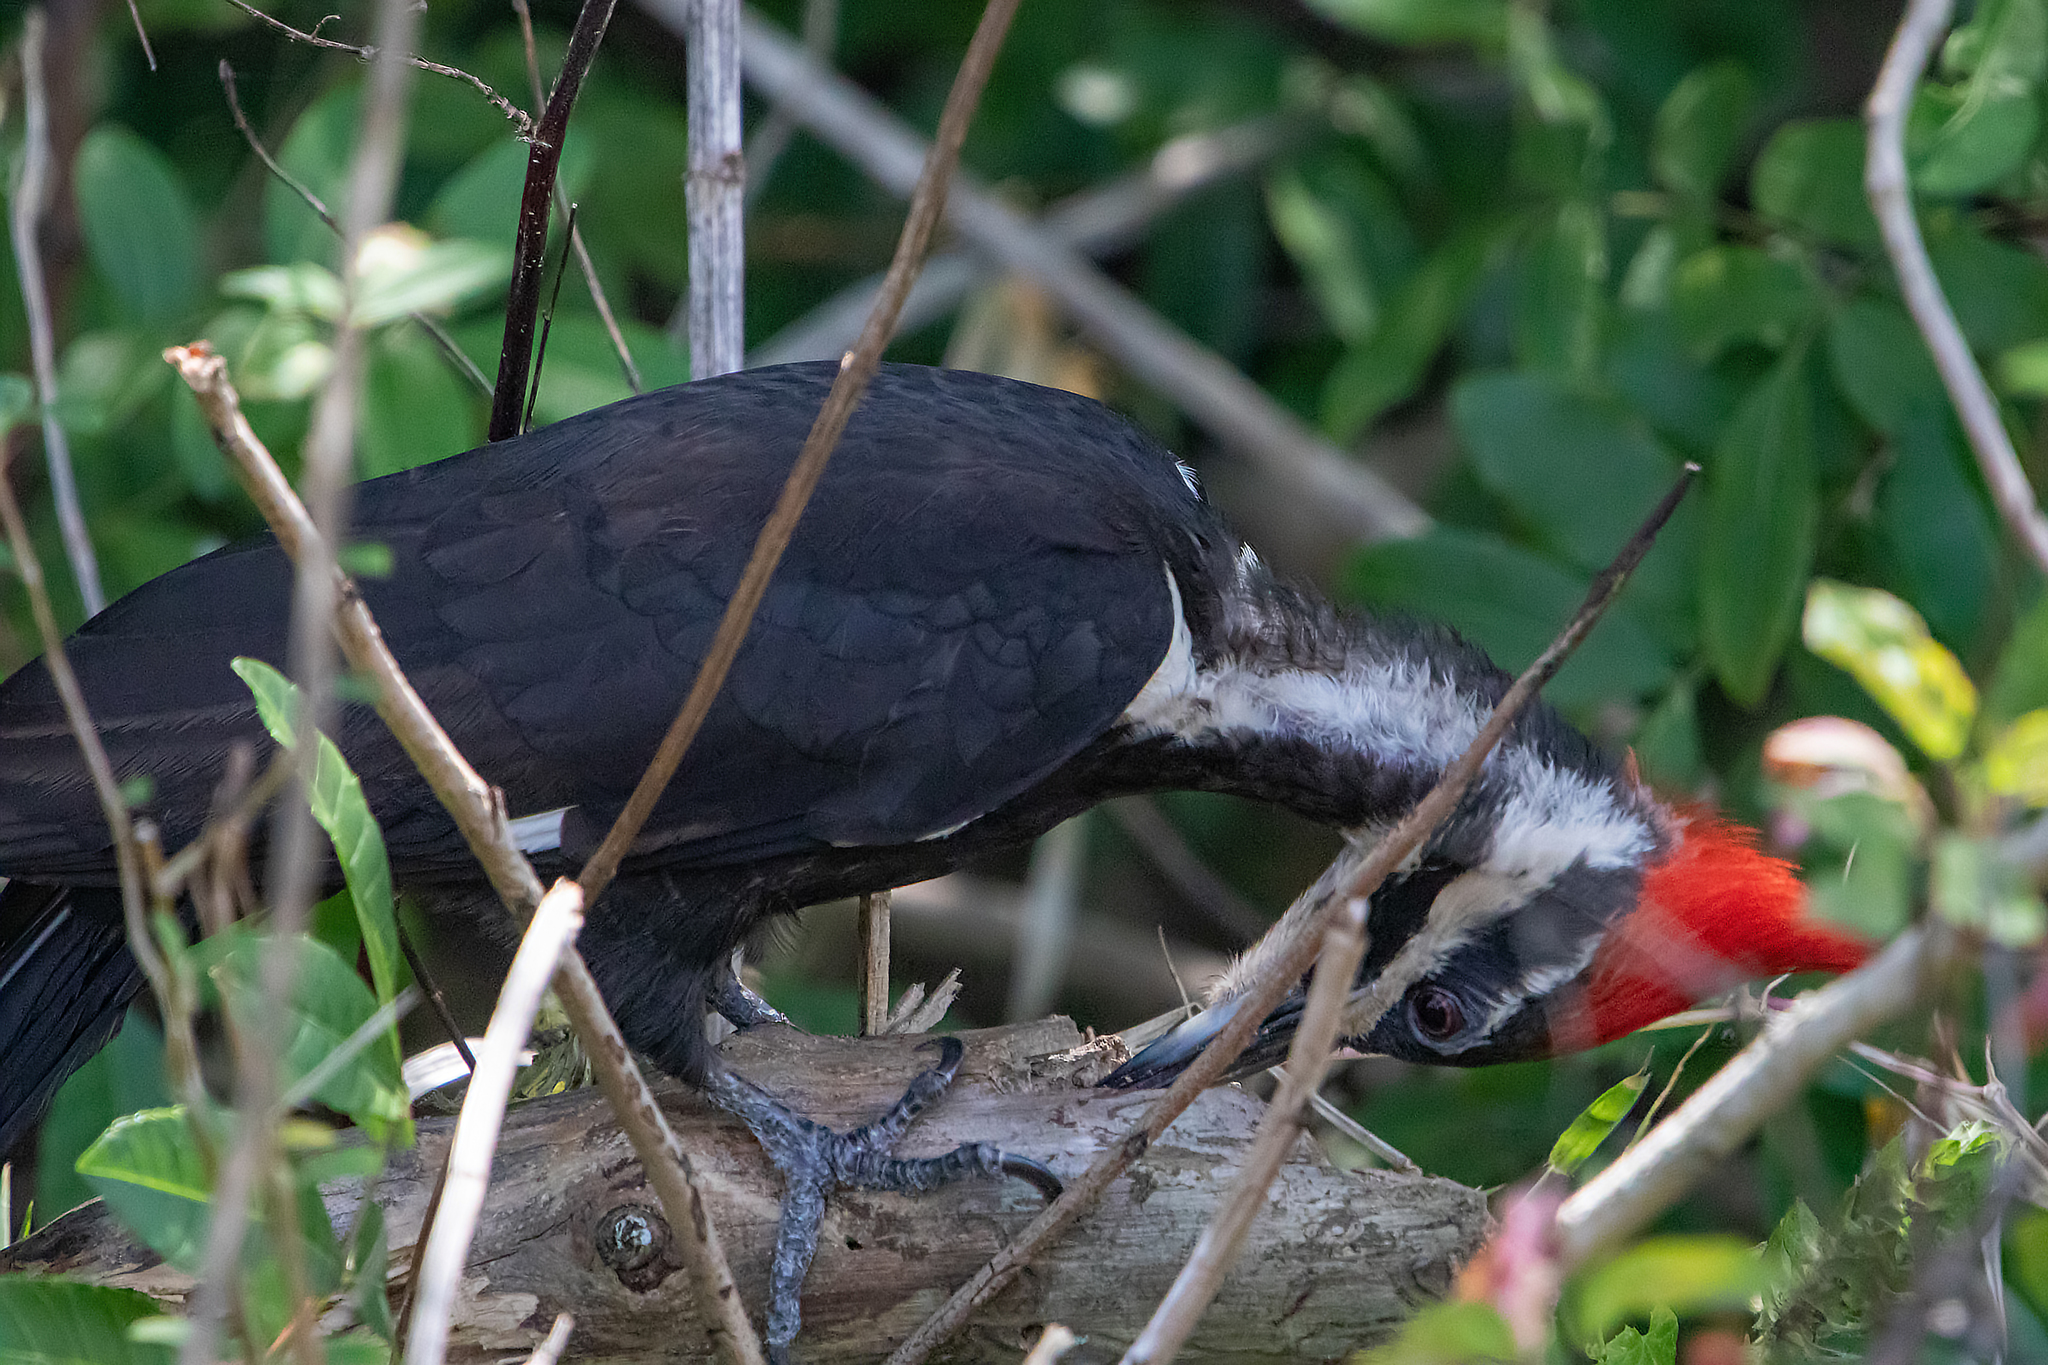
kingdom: Animalia
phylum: Chordata
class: Aves
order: Piciformes
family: Picidae
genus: Dryocopus
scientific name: Dryocopus pileatus
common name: Pileated woodpecker
